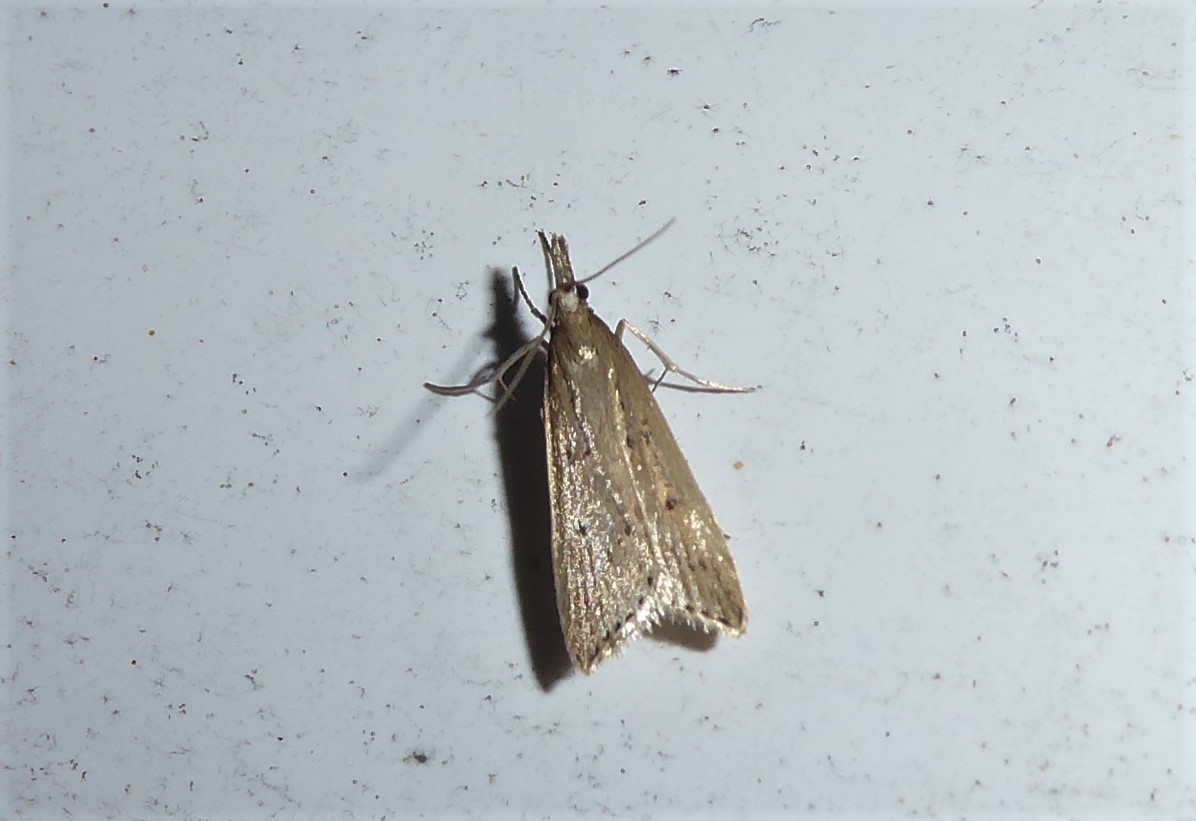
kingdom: Animalia
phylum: Arthropoda
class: Insecta
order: Lepidoptera
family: Crambidae
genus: Antiscopa
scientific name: Antiscopa elaphra
